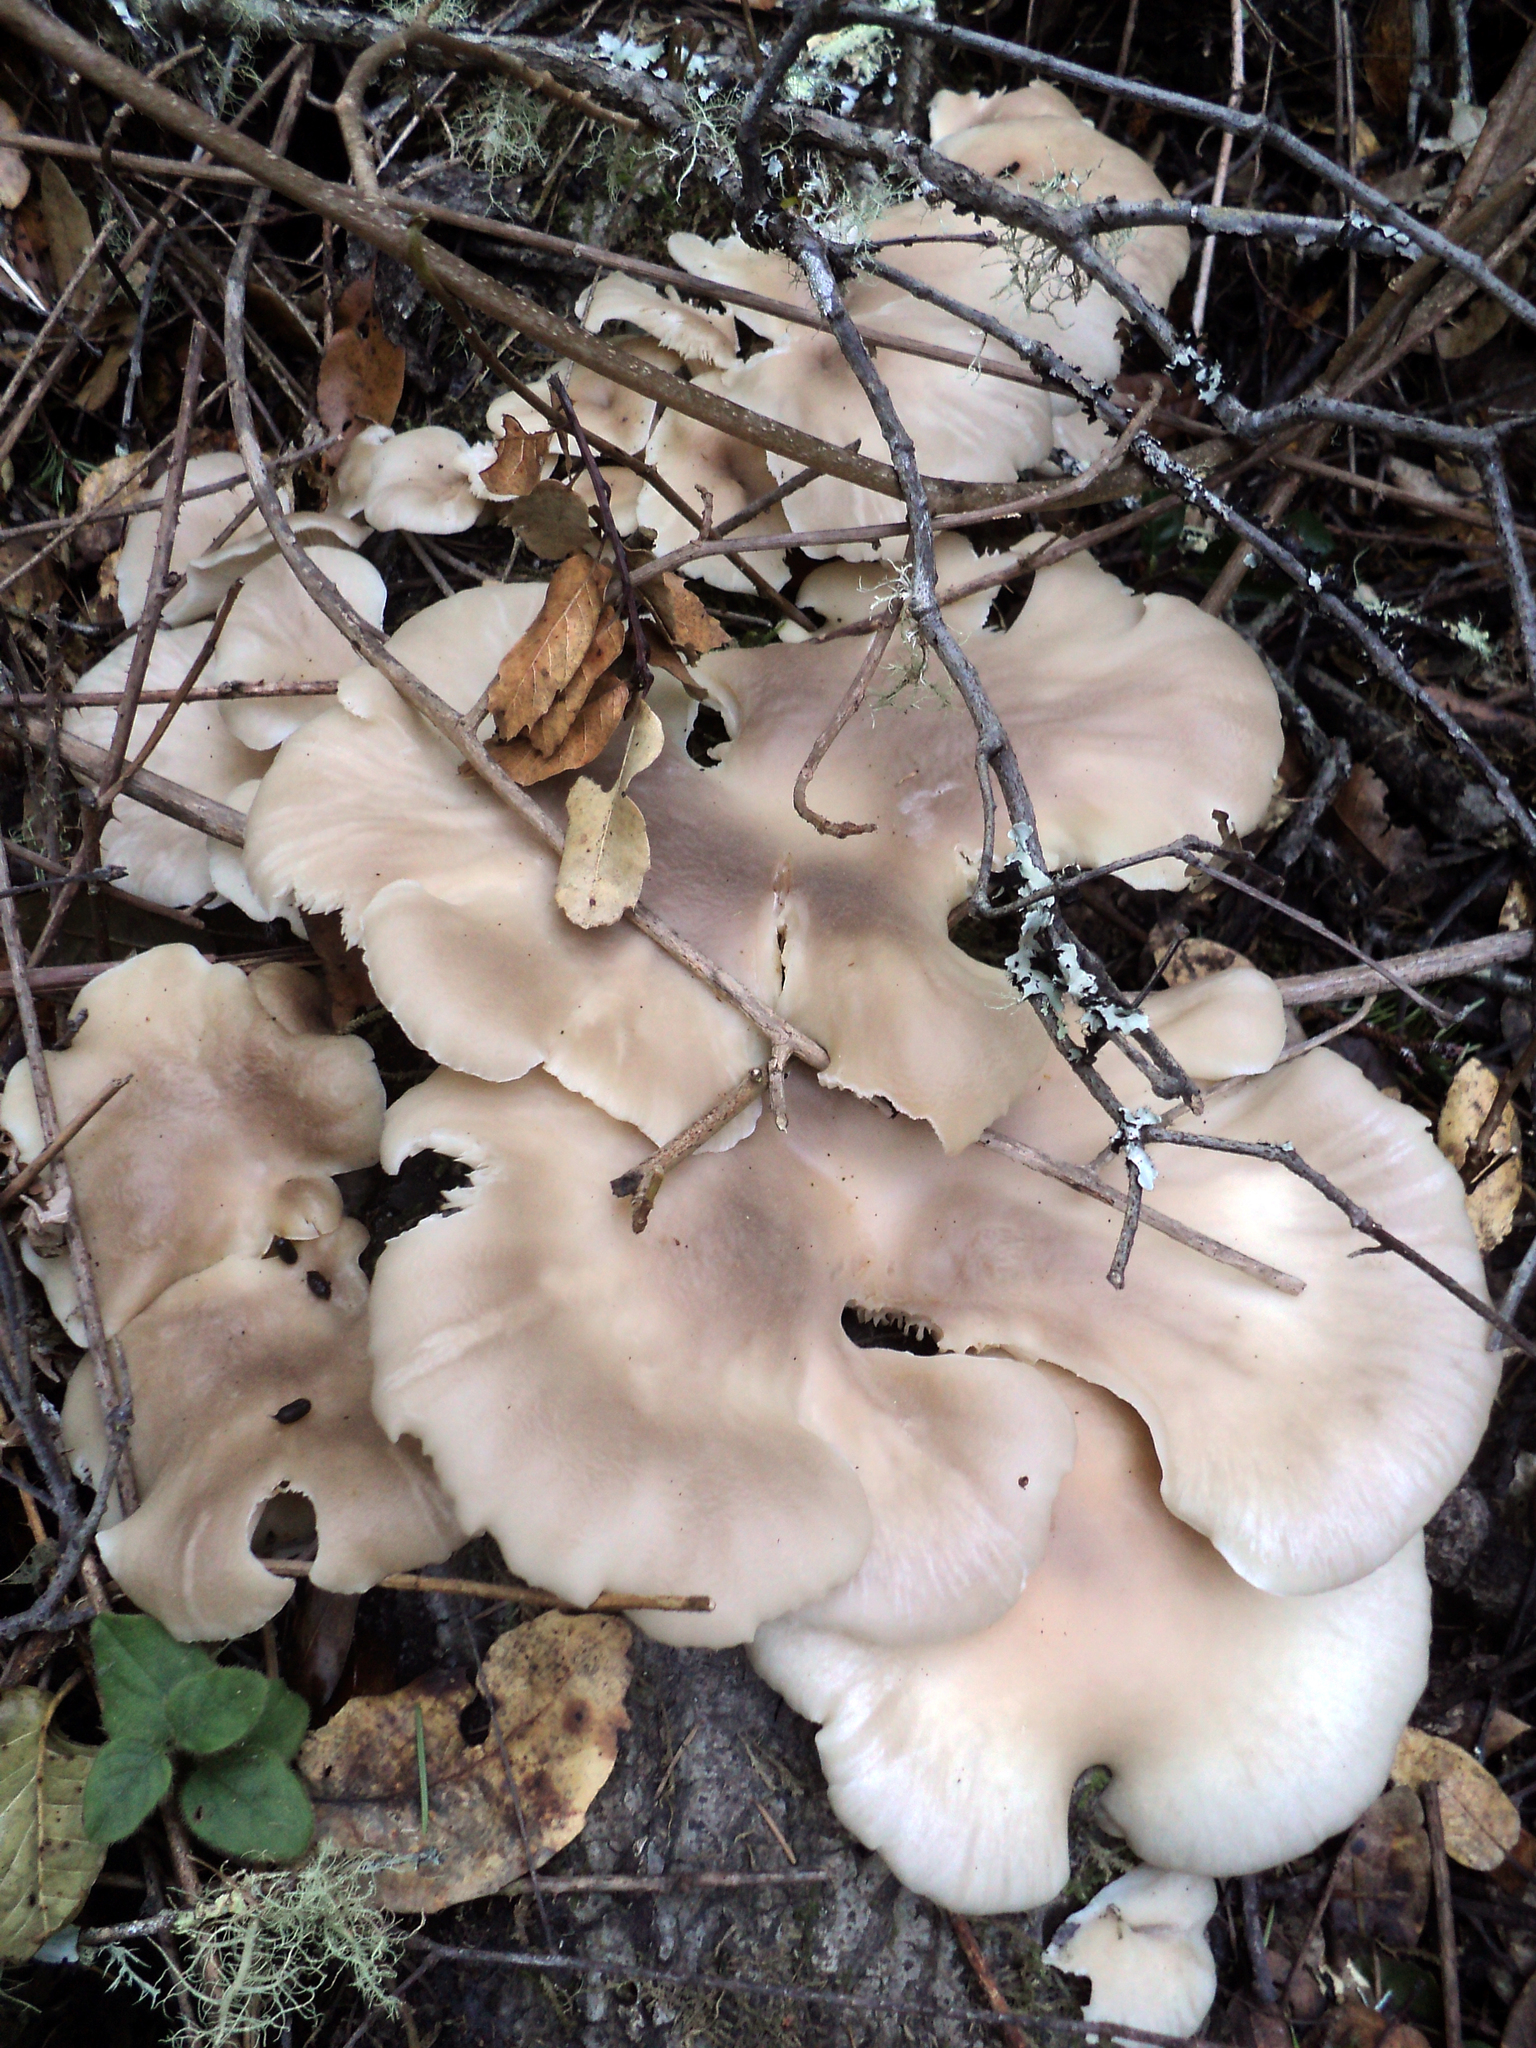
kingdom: Fungi
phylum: Basidiomycota
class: Agaricomycetes
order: Agaricales
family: Pleurotaceae
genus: Pleurotus
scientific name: Pleurotus ostreatus
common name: Oyster mushroom
